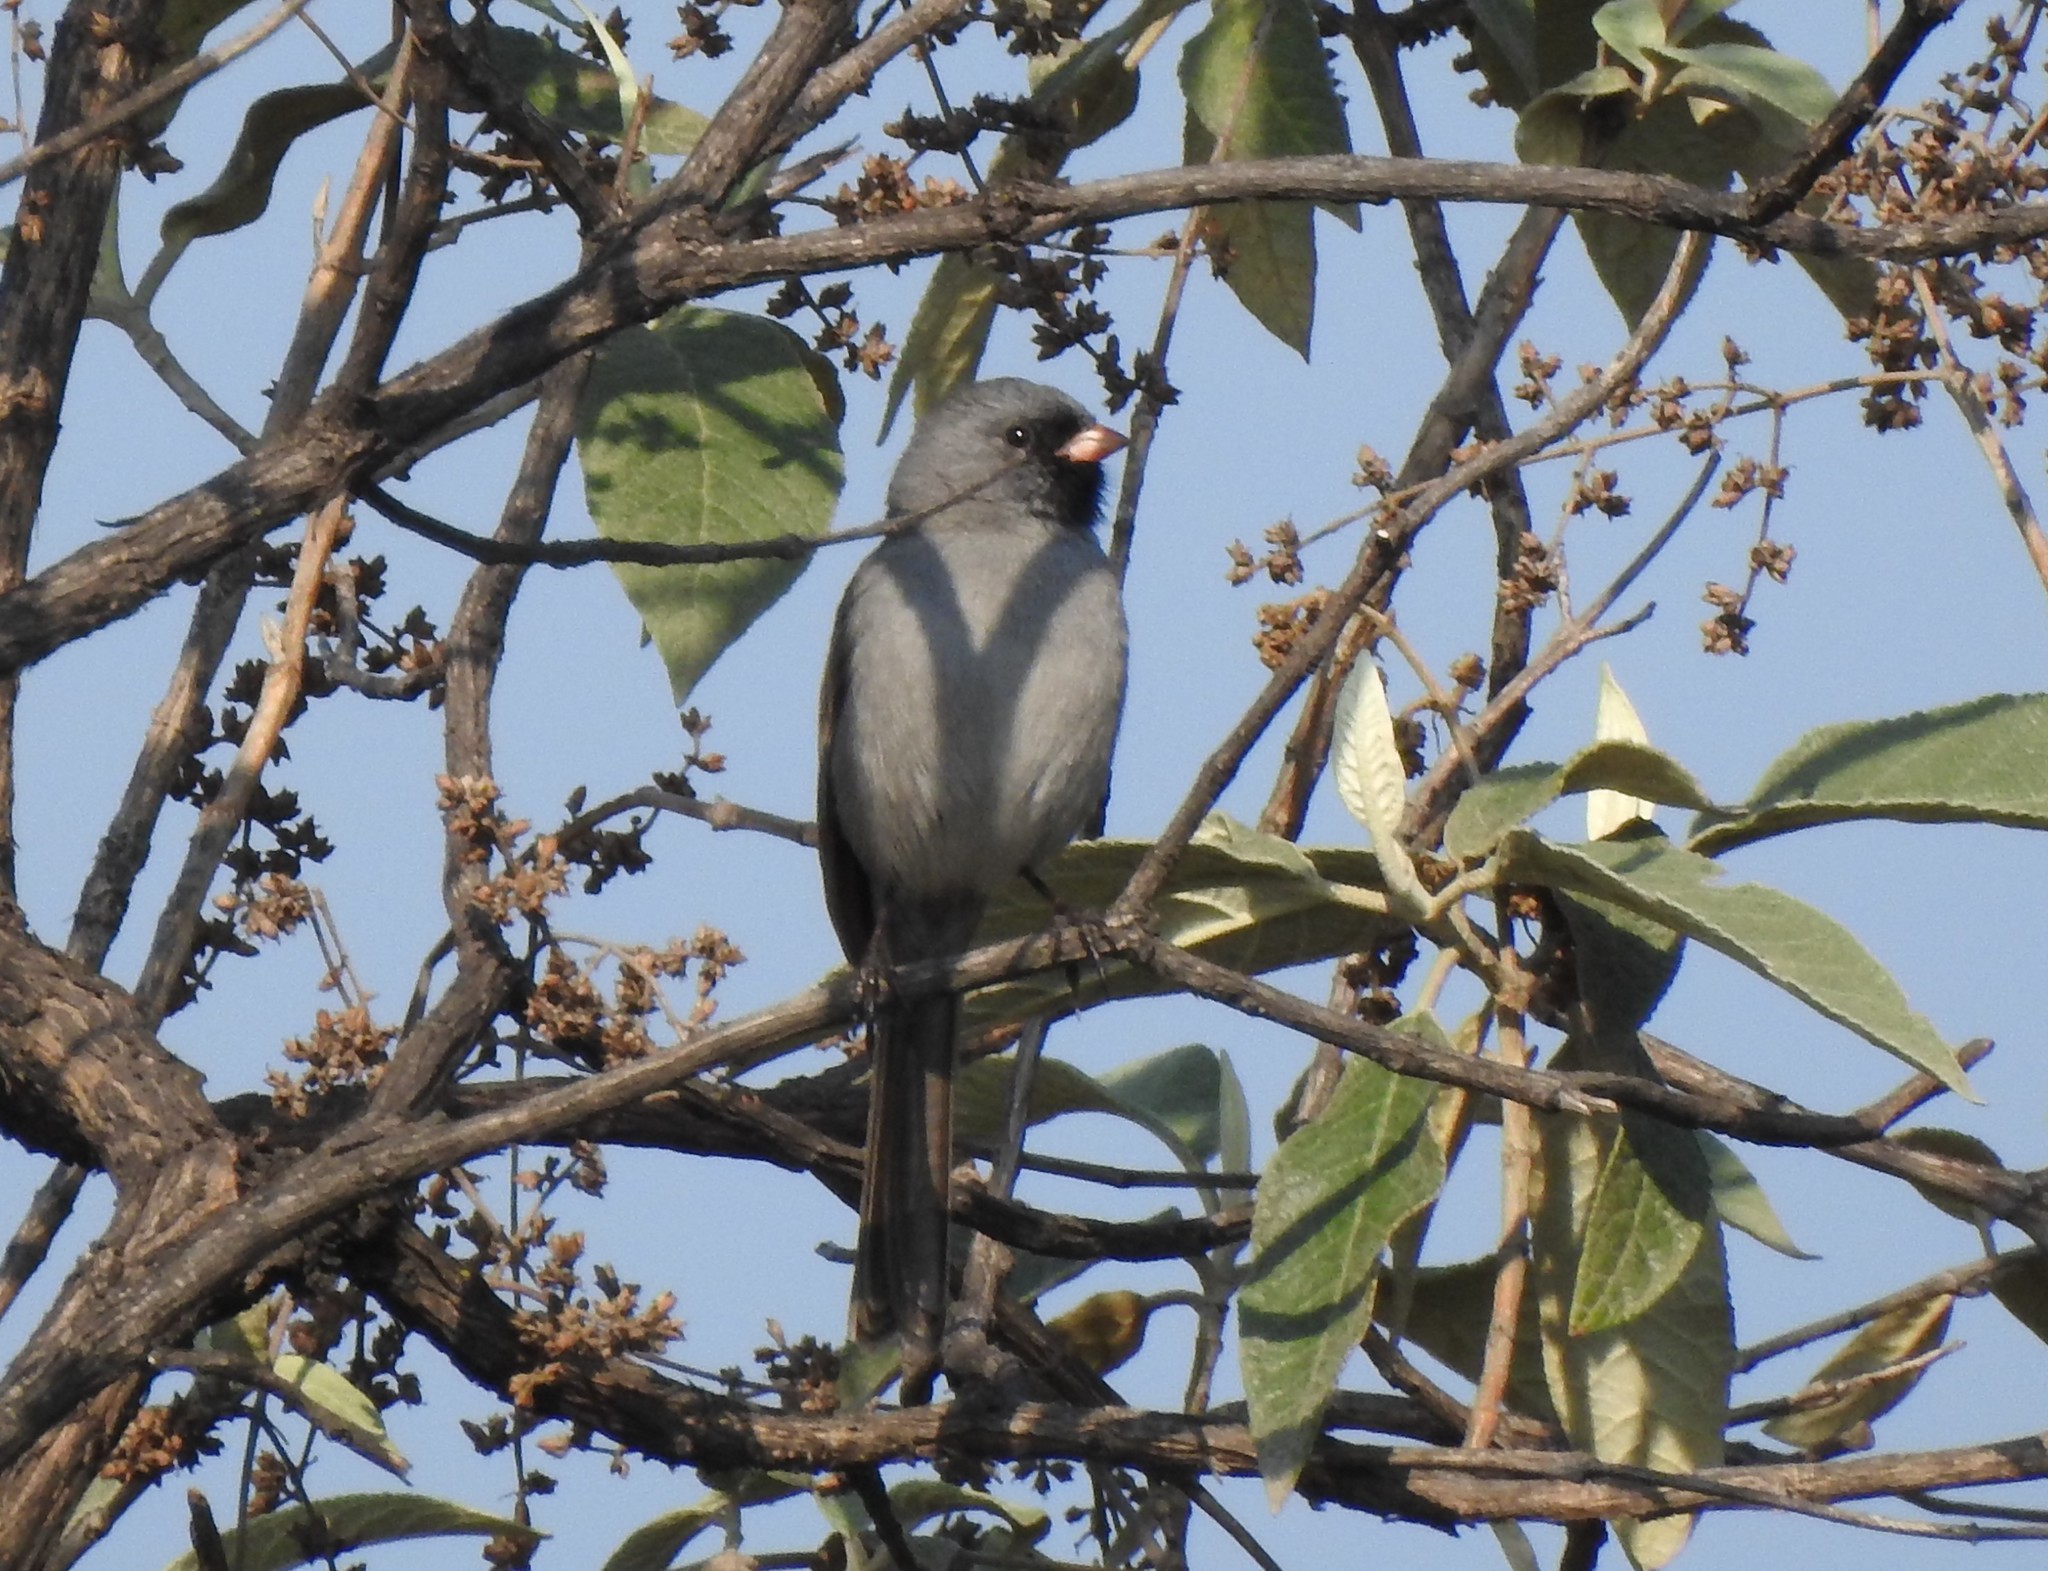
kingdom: Animalia
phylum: Chordata
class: Aves
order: Passeriformes
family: Passerellidae
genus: Spizella
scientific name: Spizella atrogularis
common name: Black-chinned sparrow
